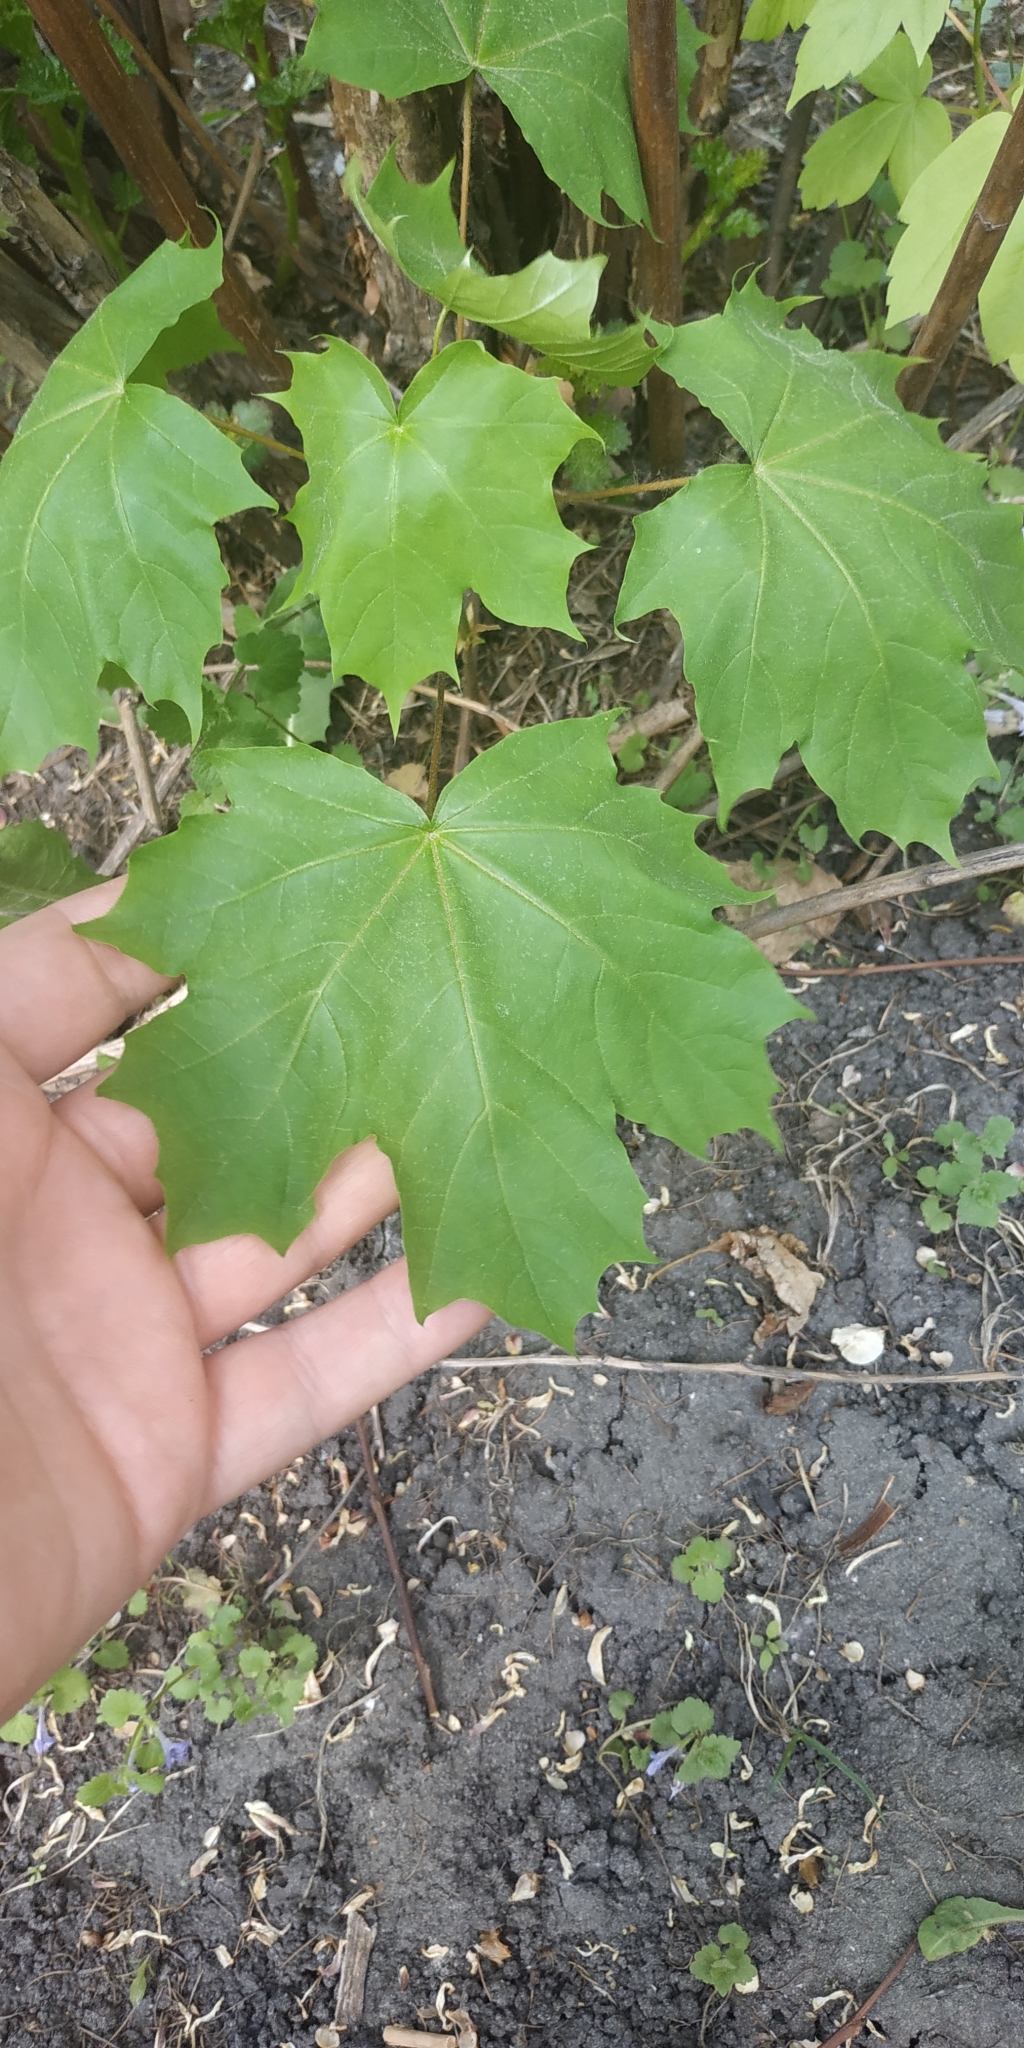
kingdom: Plantae
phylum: Tracheophyta
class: Magnoliopsida
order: Sapindales
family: Sapindaceae
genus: Acer
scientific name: Acer platanoides
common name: Norway maple
